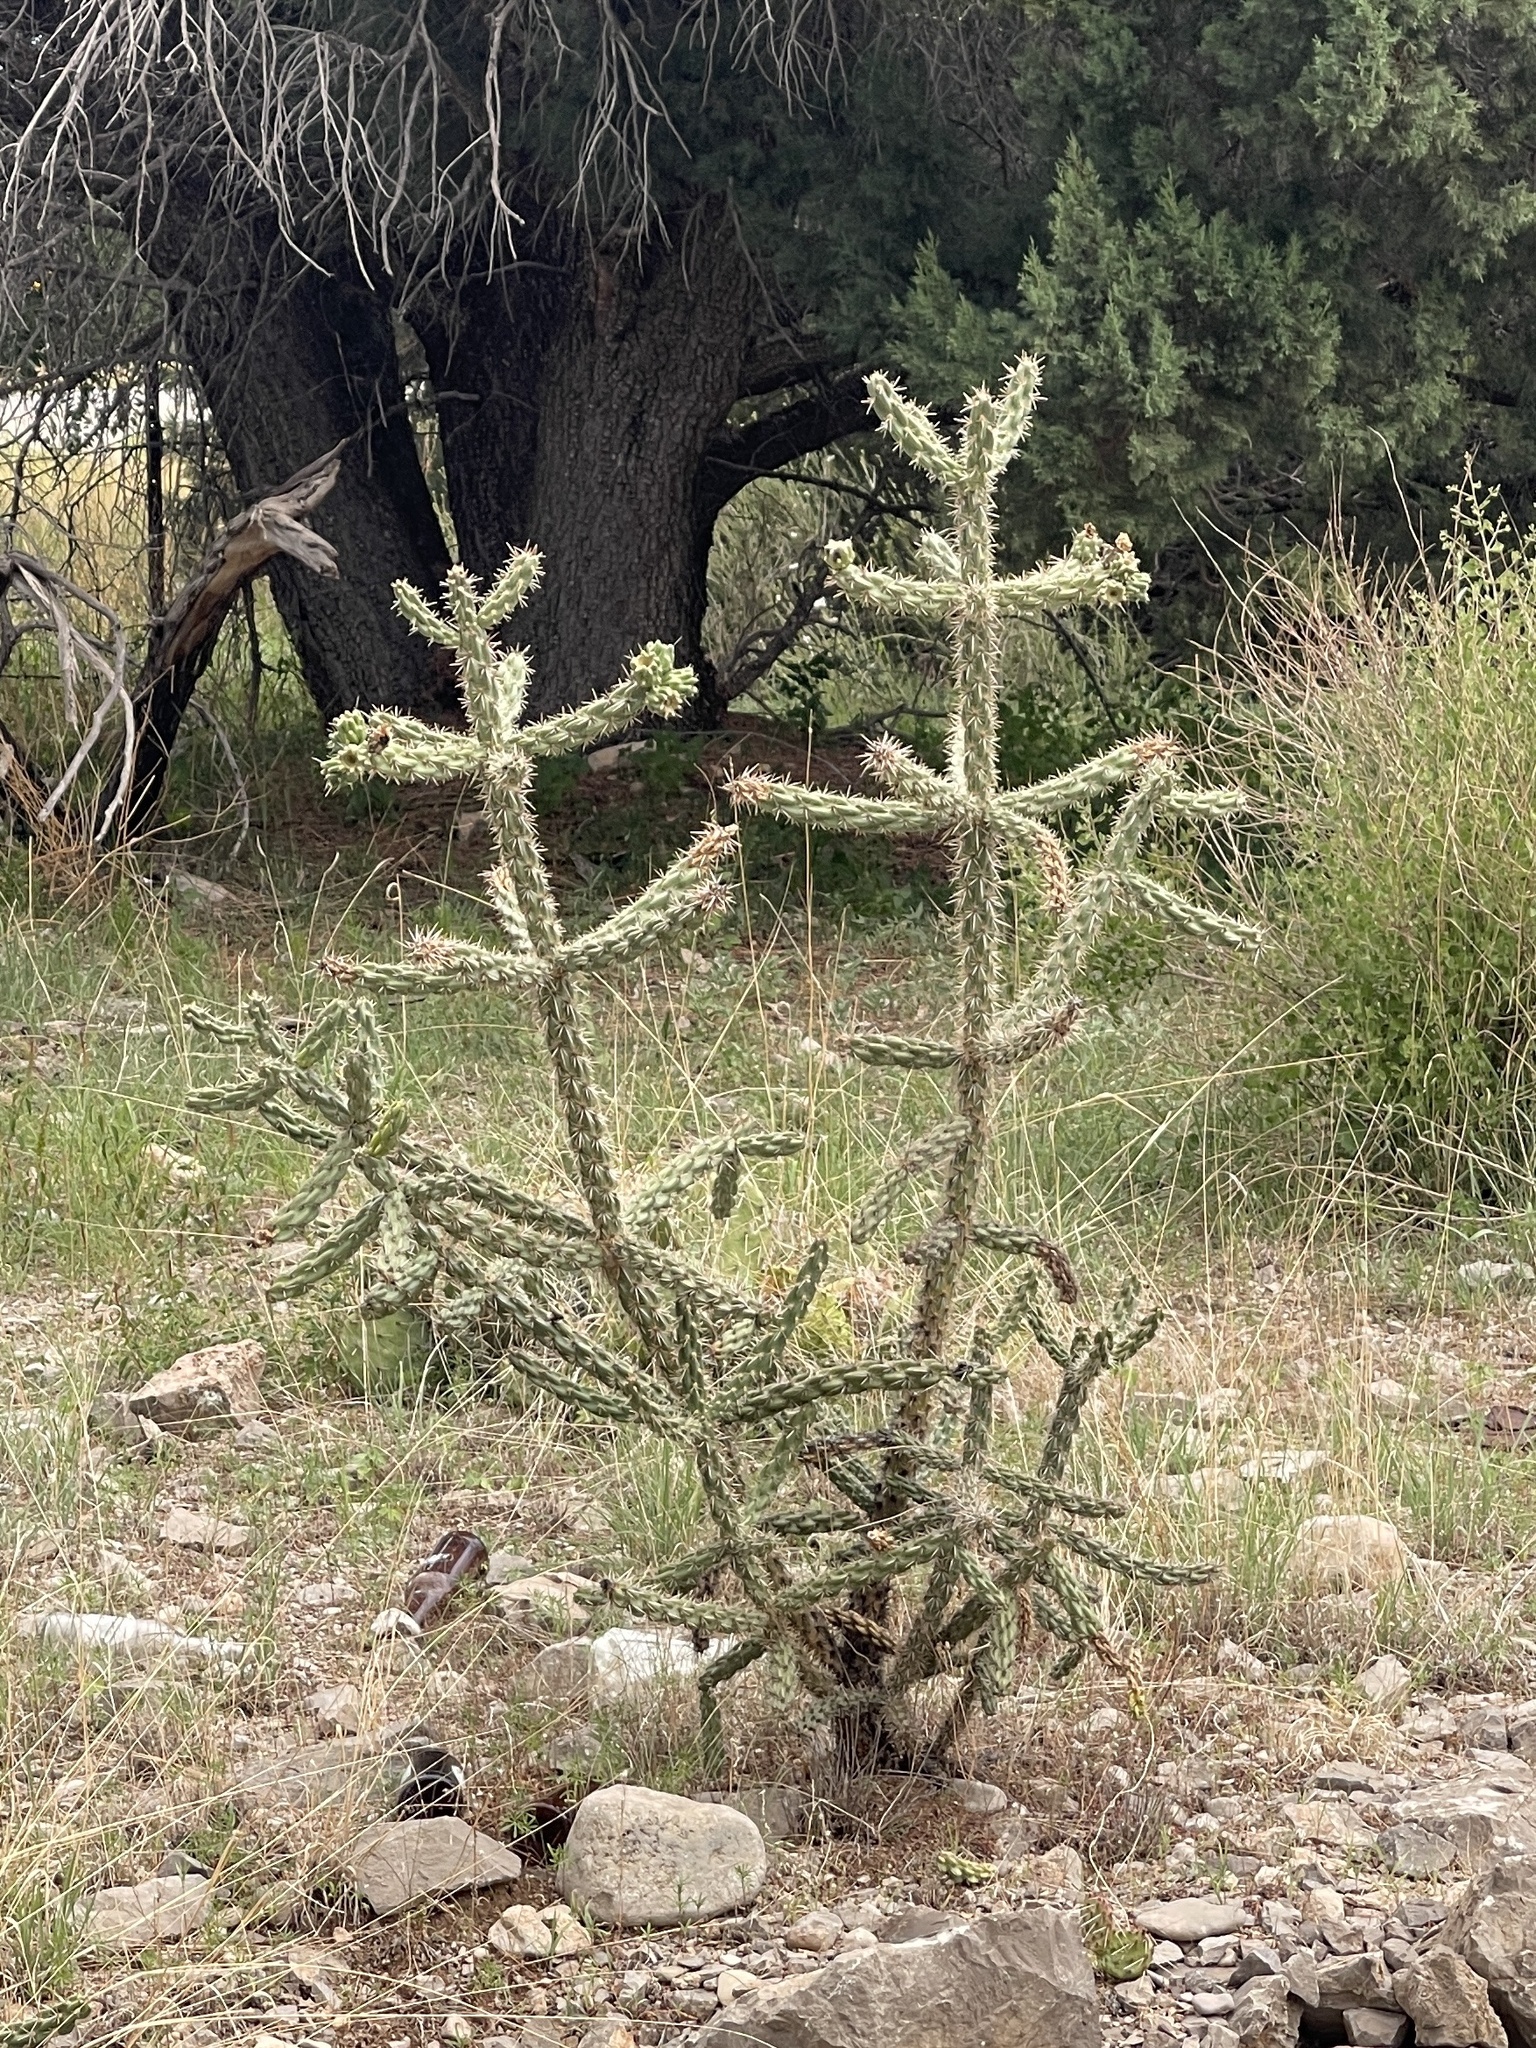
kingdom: Plantae
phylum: Tracheophyta
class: Magnoliopsida
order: Caryophyllales
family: Cactaceae
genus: Cylindropuntia
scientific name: Cylindropuntia imbricata
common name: Candelabrum cactus
